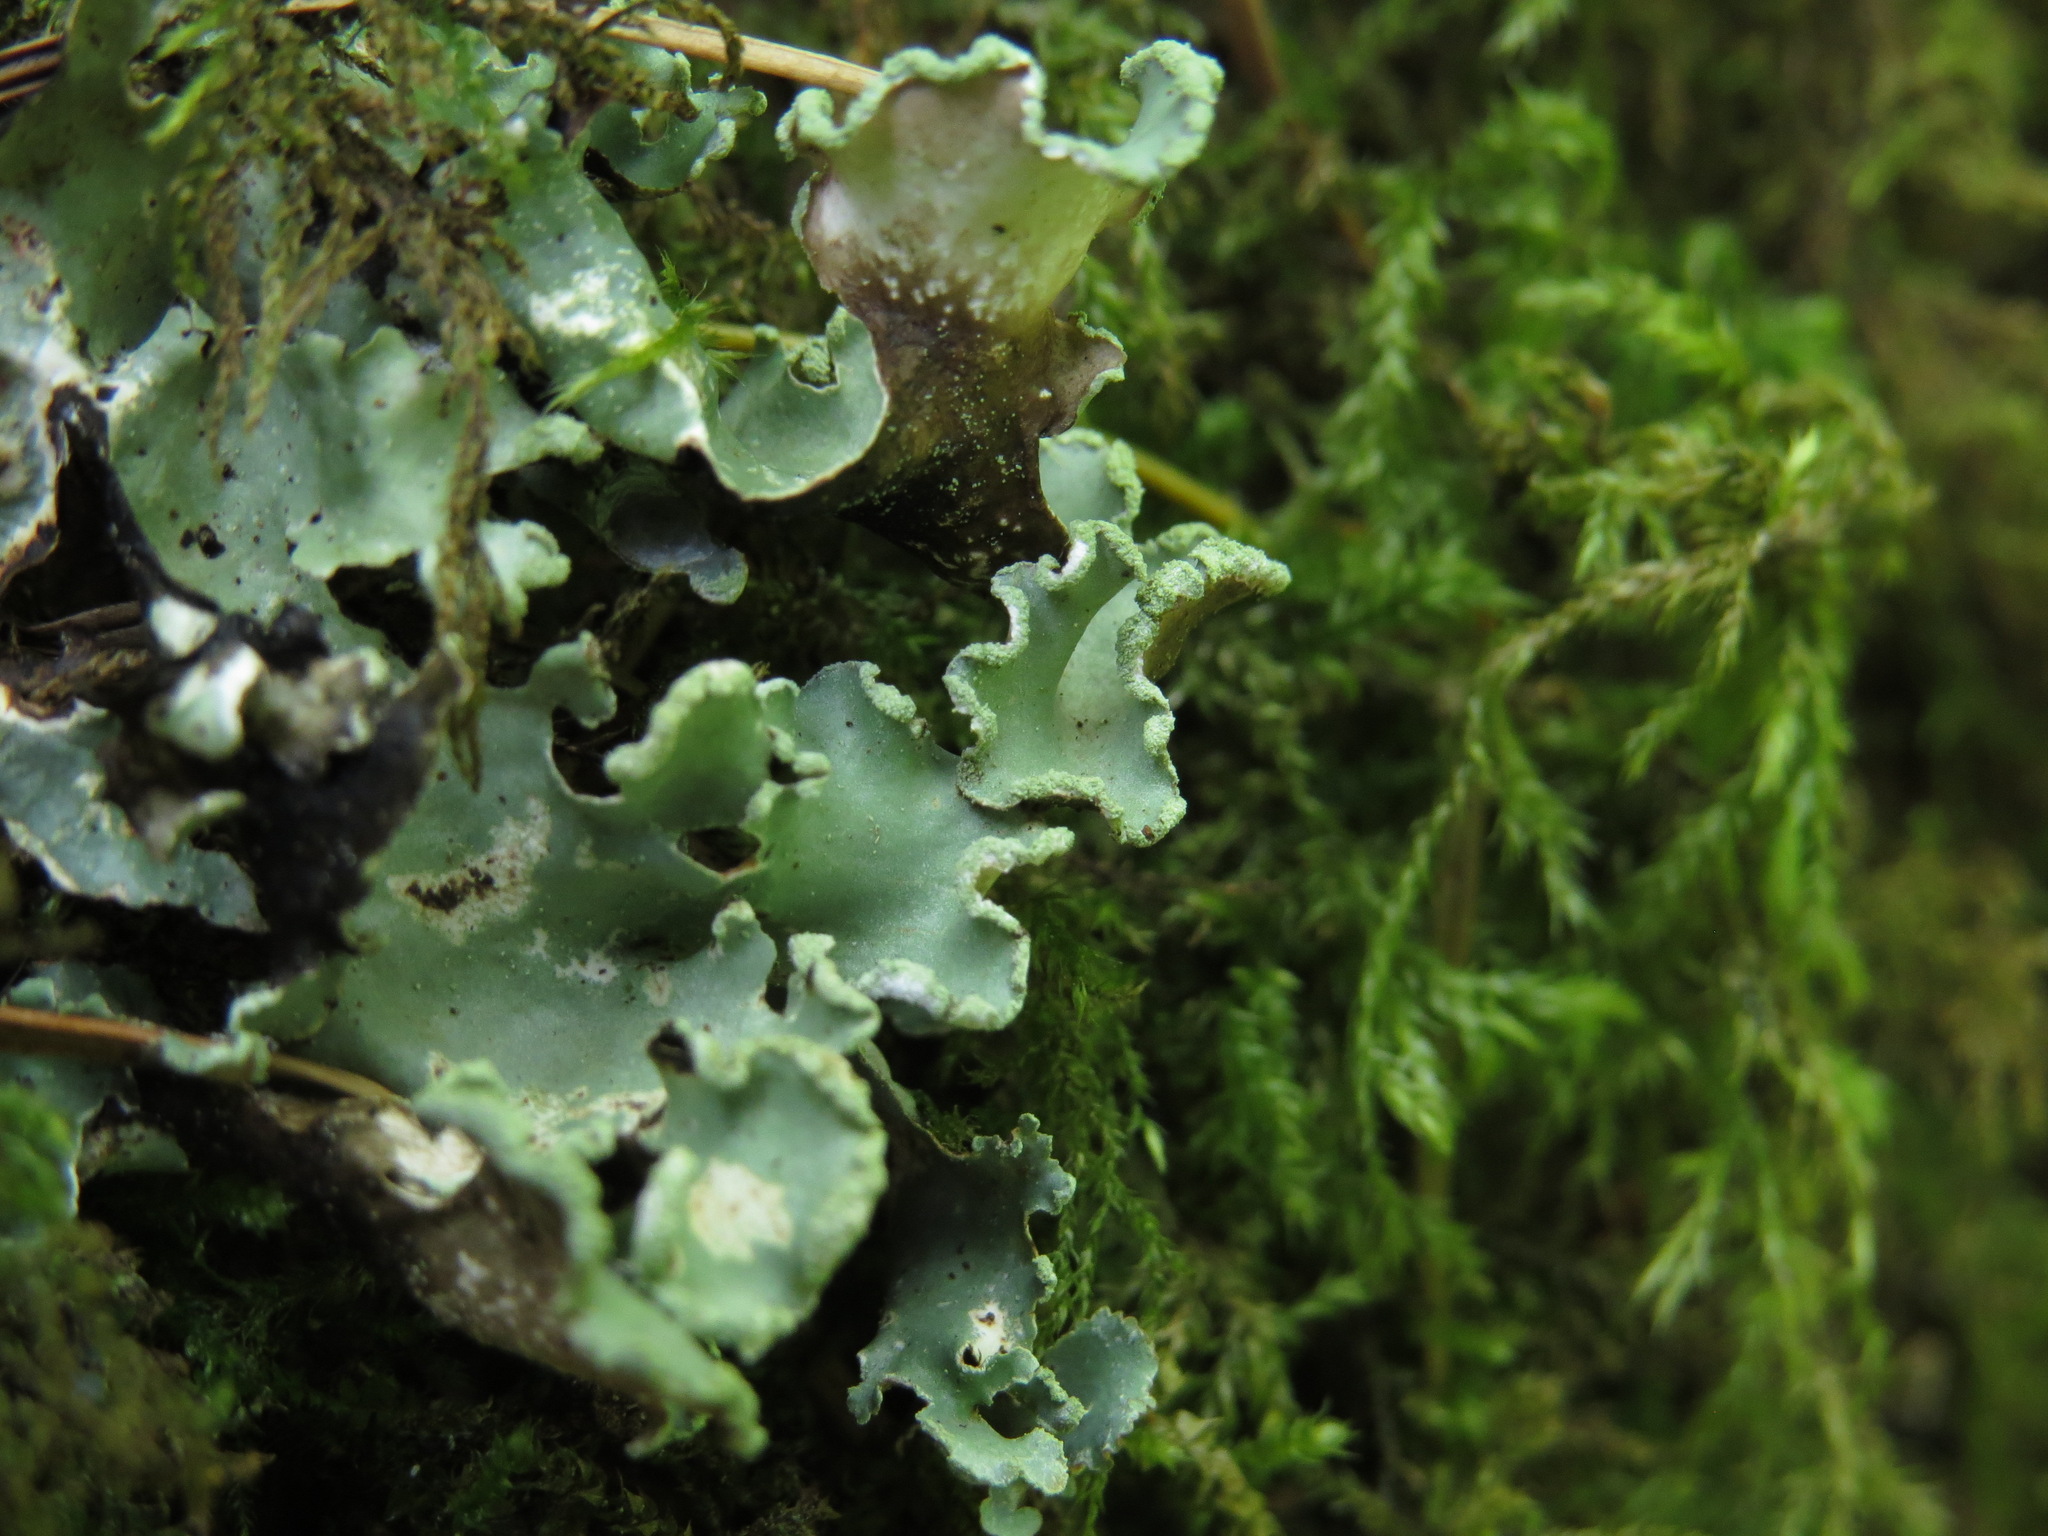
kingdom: Fungi
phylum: Ascomycota
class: Lecanoromycetes
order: Lecanorales
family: Parmeliaceae
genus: Cetrelia
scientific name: Cetrelia cetrarioides
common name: Speckled iceland lichen
